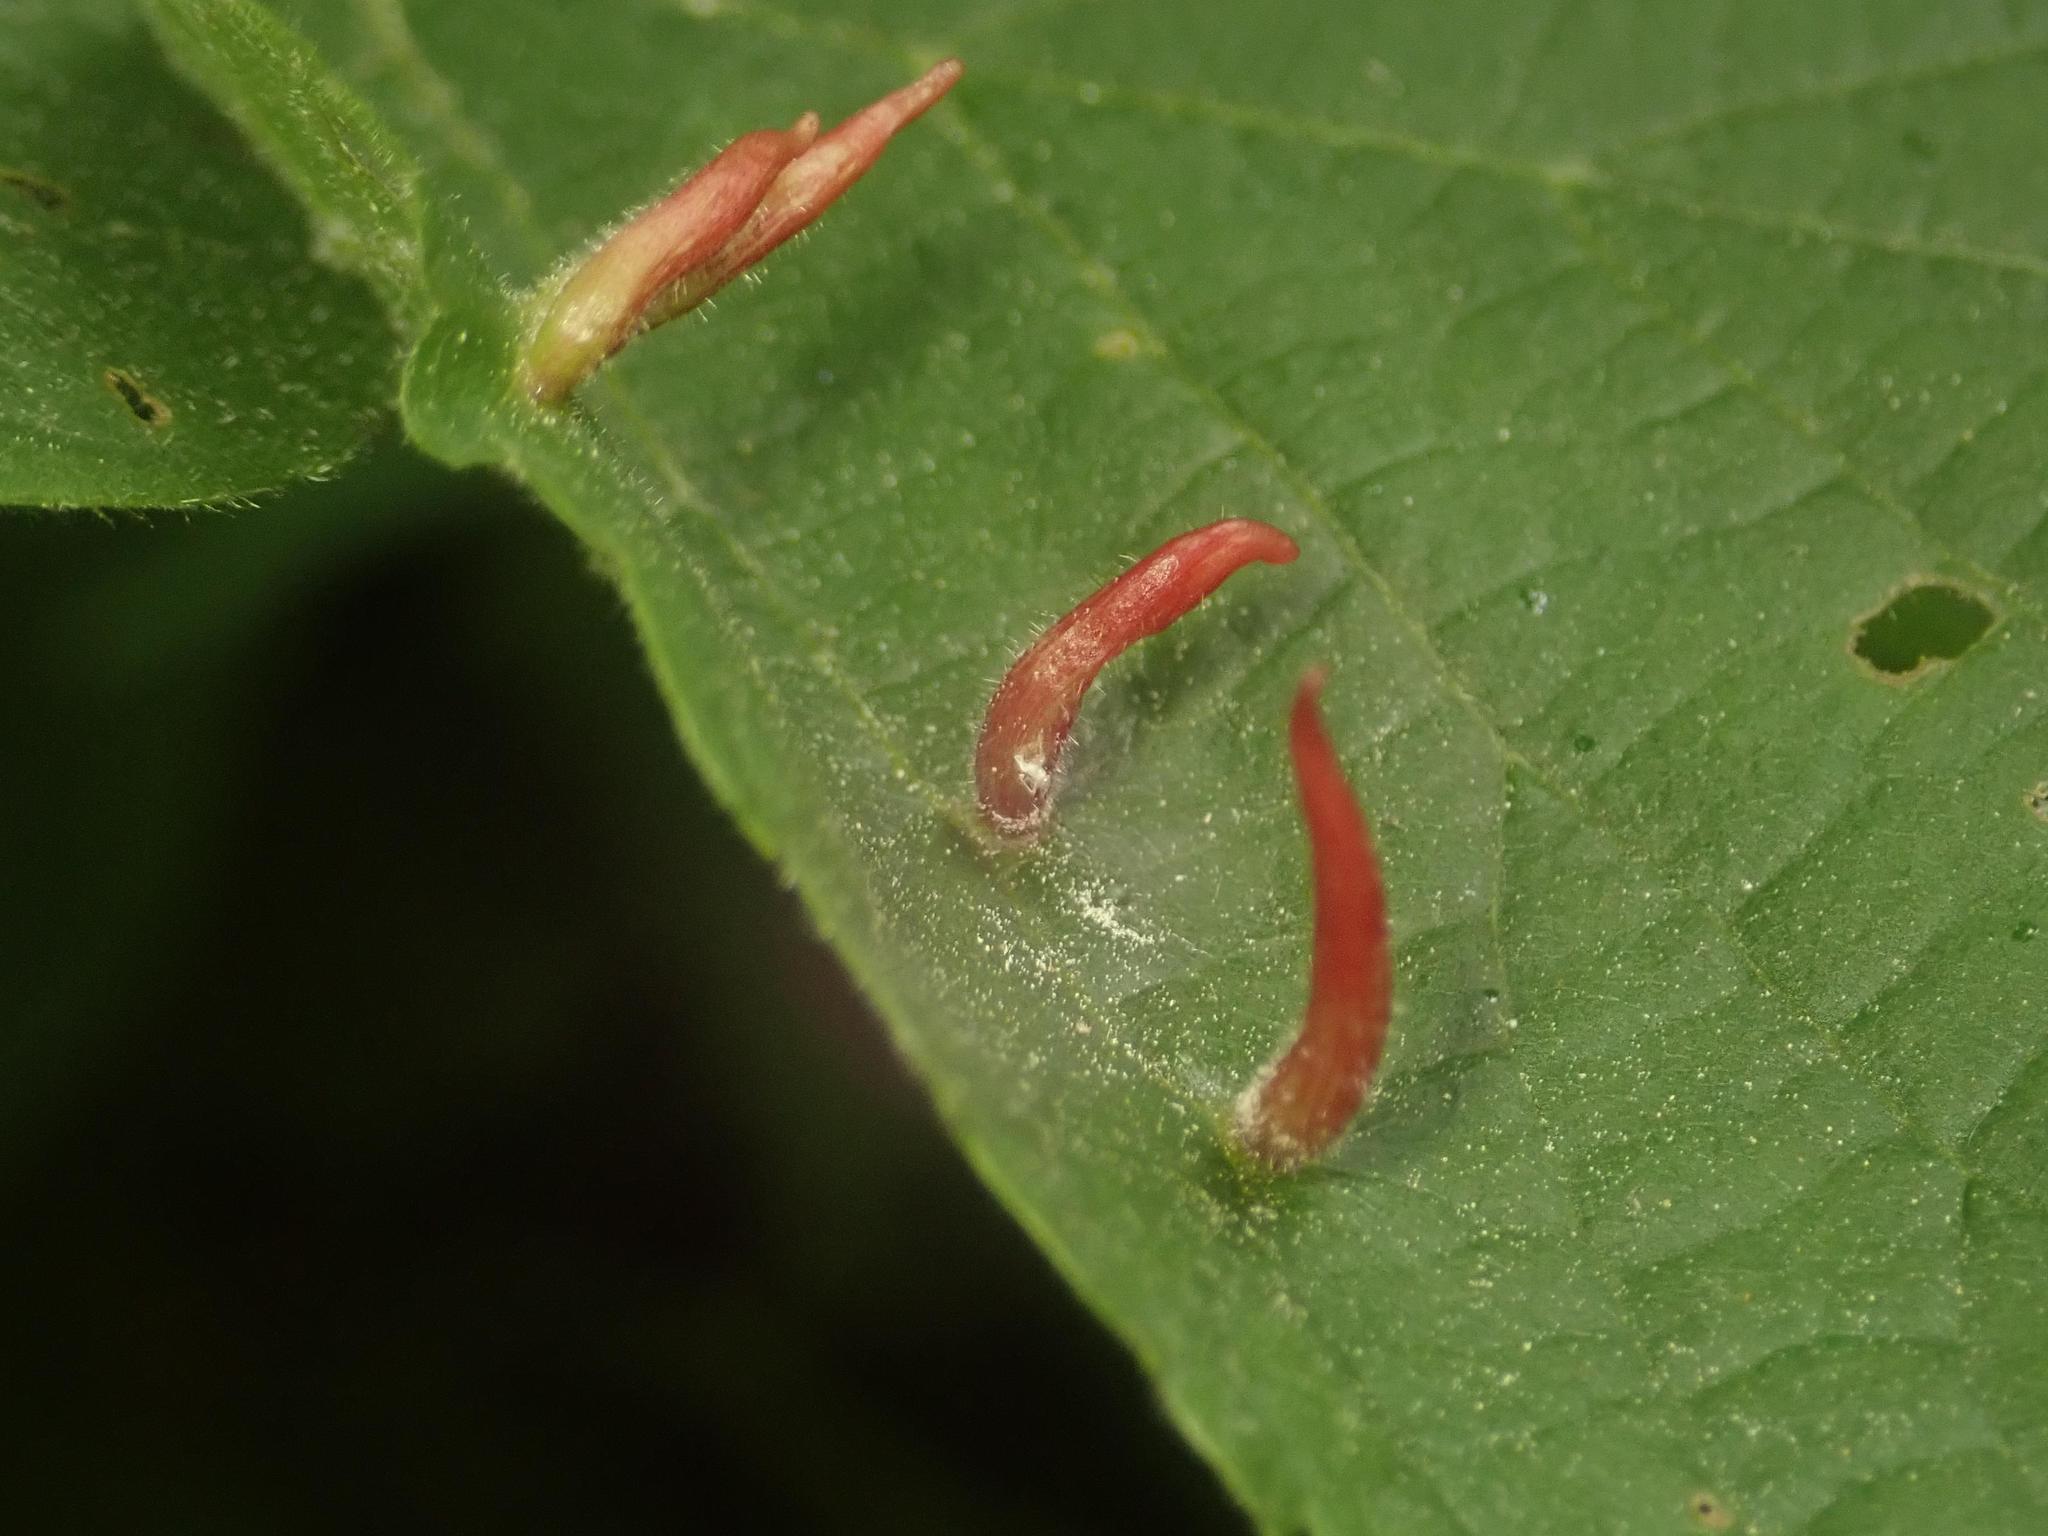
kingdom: Animalia
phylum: Arthropoda
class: Arachnida
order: Trombidiformes
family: Eriophyidae
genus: Eriophyes
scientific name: Eriophyes tiliae
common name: Red nail gall mite
